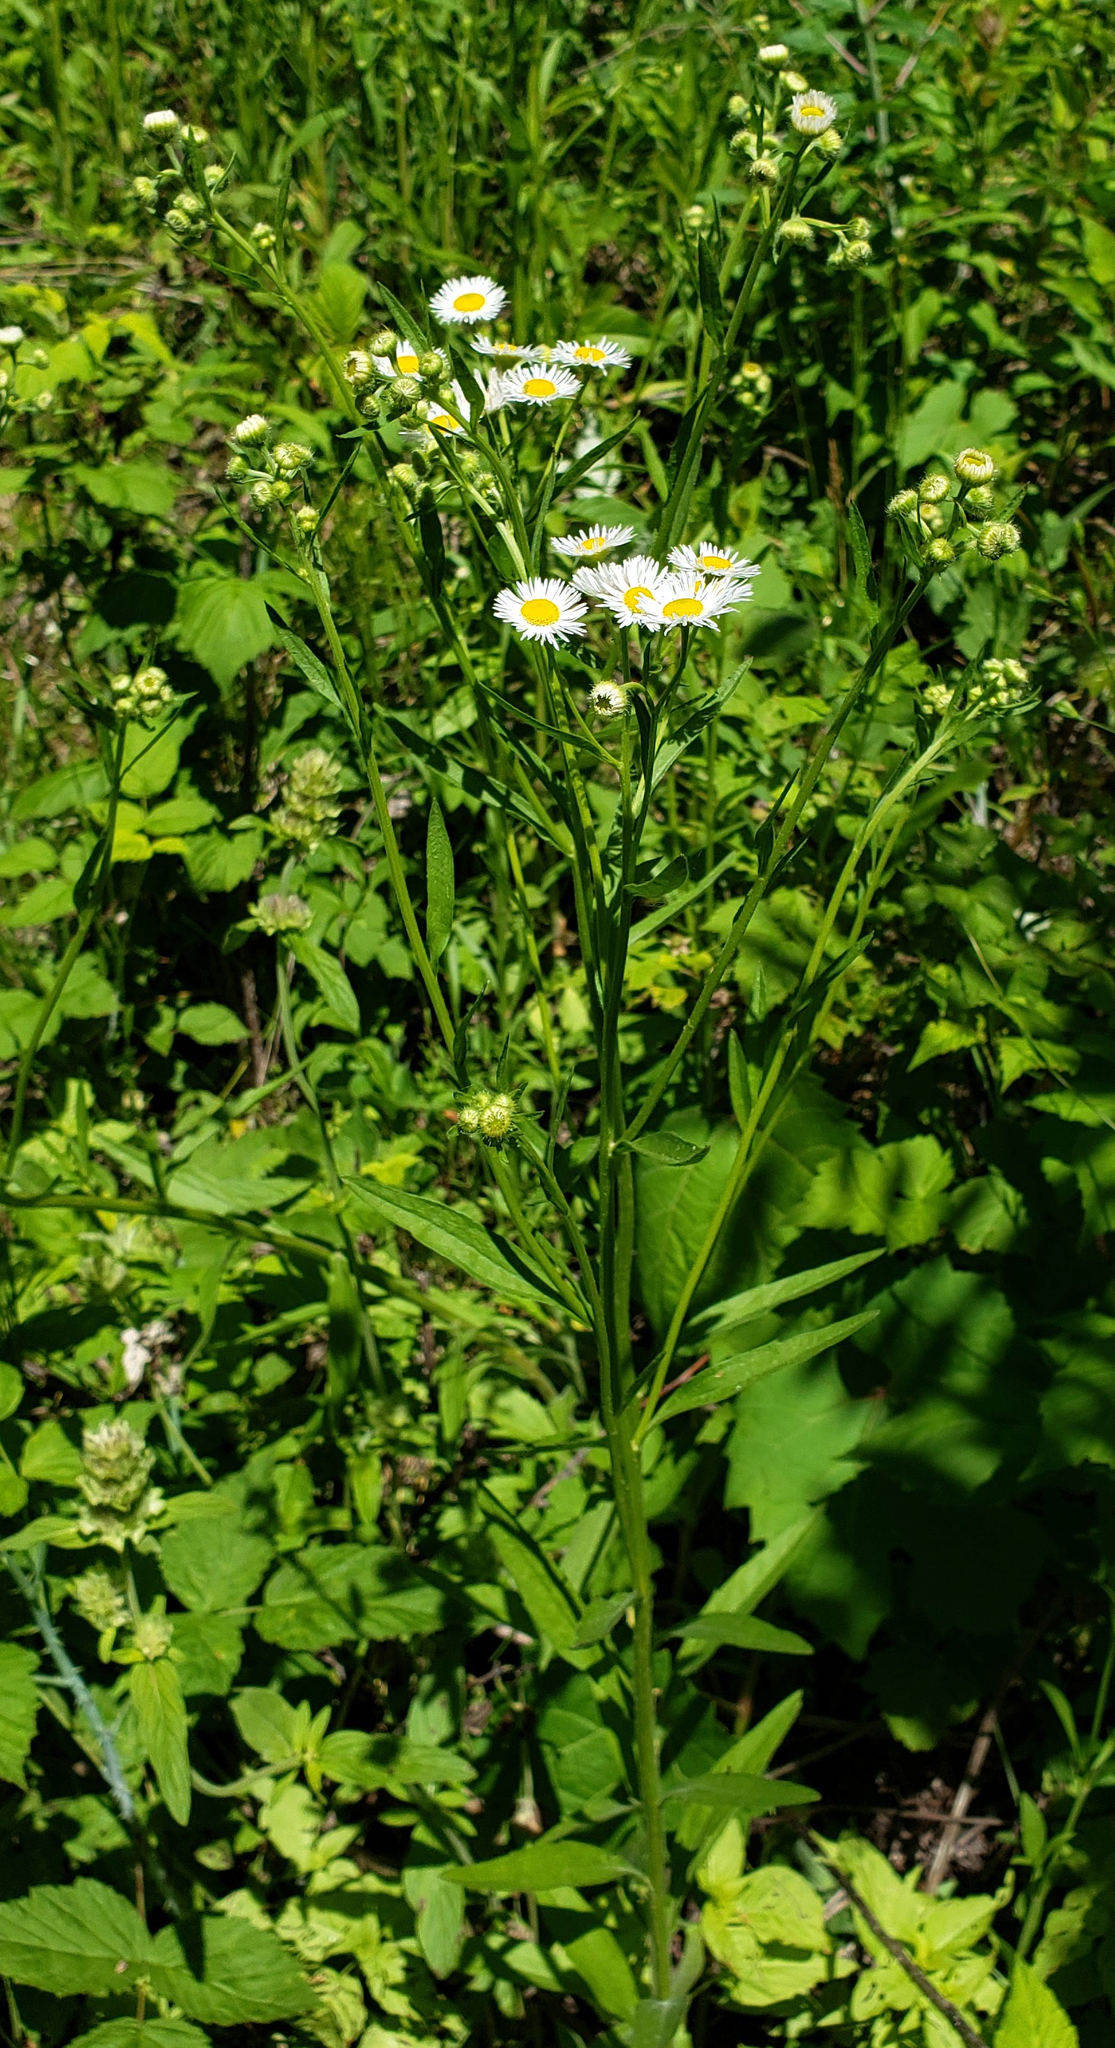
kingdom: Plantae
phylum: Tracheophyta
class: Magnoliopsida
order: Asterales
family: Asteraceae
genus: Erigeron
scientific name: Erigeron strigosus
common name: Common eastern fleabane
